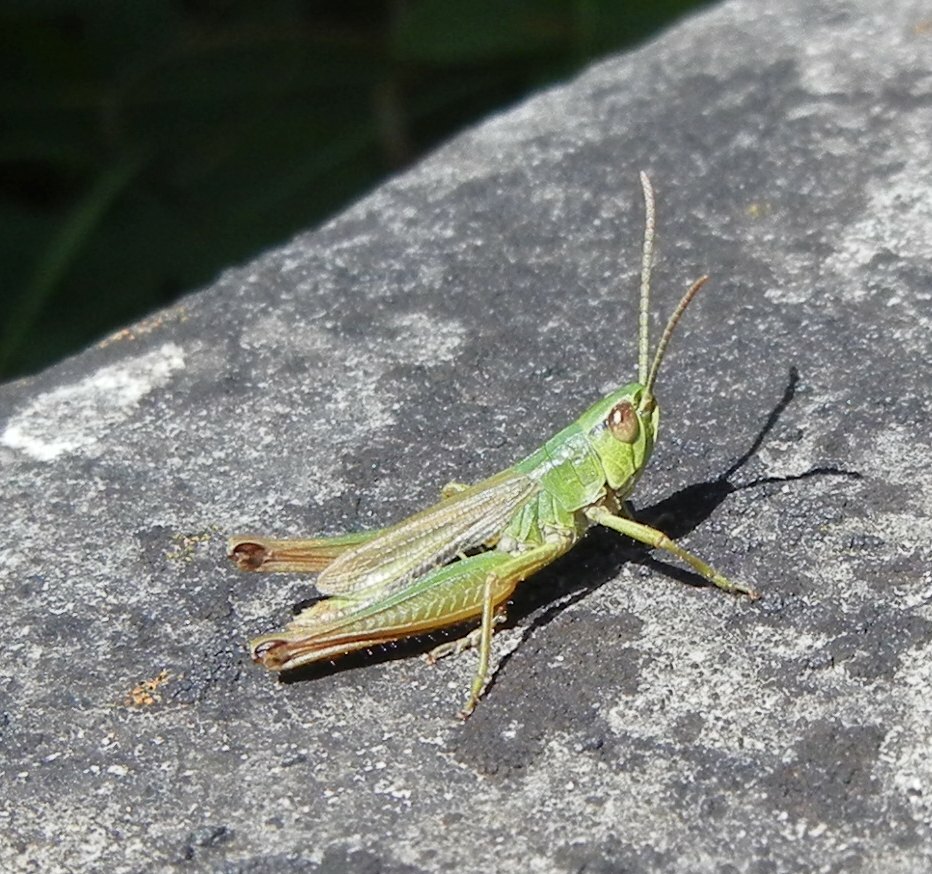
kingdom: Animalia
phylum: Arthropoda
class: Insecta
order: Orthoptera
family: Acrididae
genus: Pseudochorthippus
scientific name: Pseudochorthippus parallelus
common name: Meadow grasshopper
